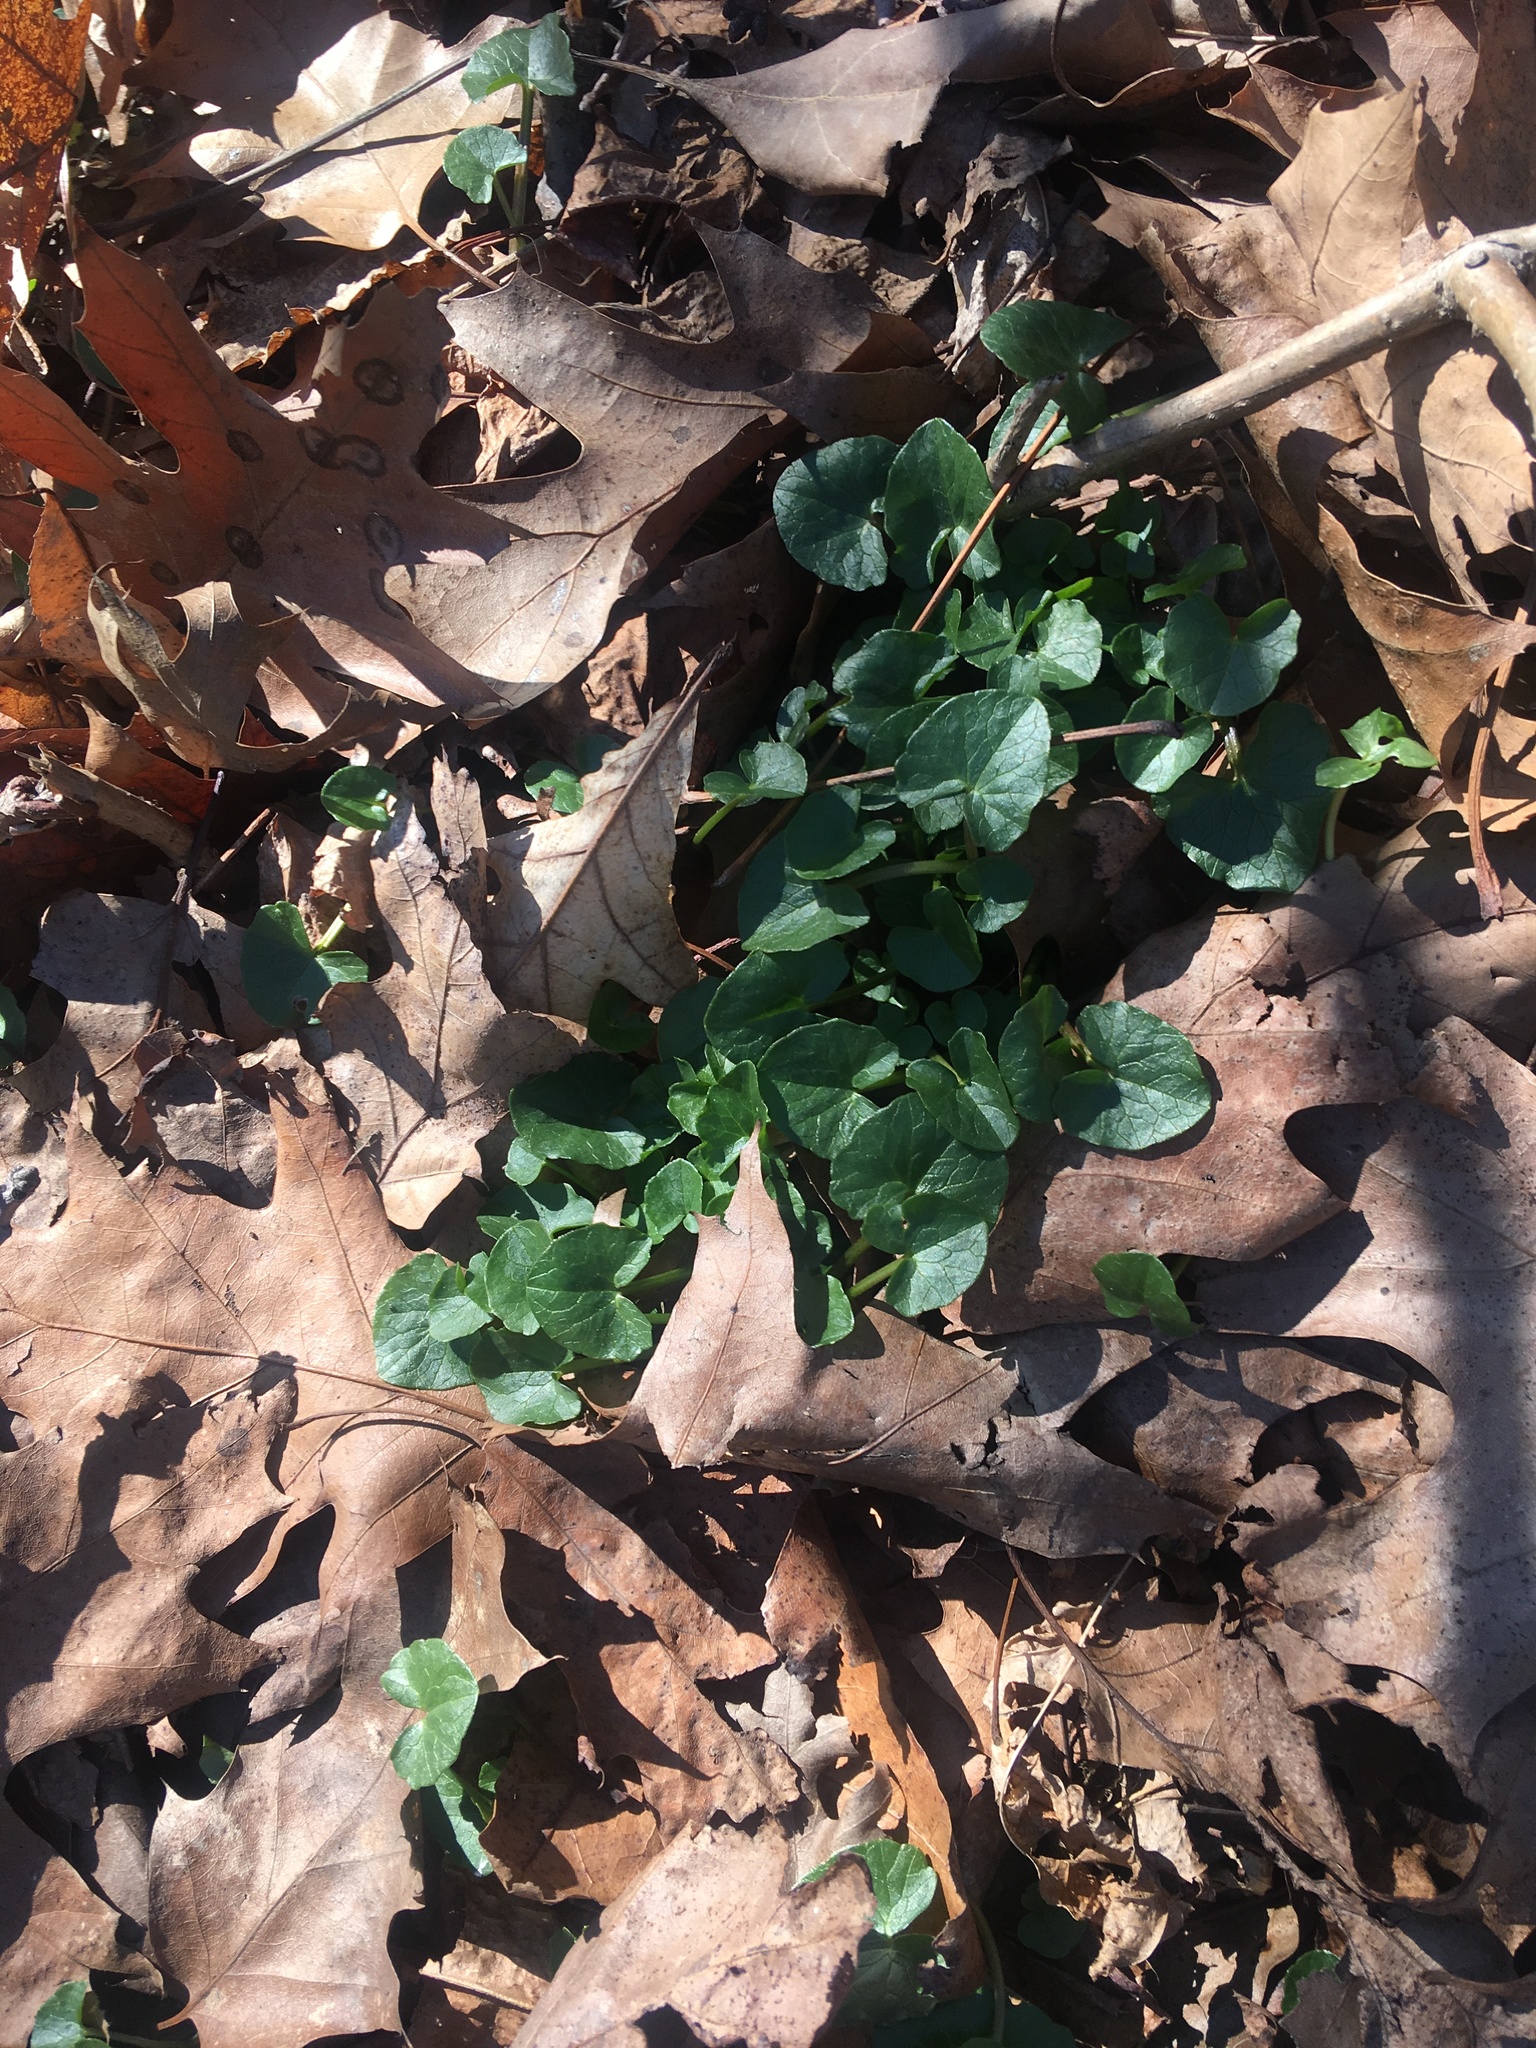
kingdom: Plantae
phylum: Tracheophyta
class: Magnoliopsida
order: Ranunculales
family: Ranunculaceae
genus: Ficaria
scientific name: Ficaria verna
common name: Lesser celandine
